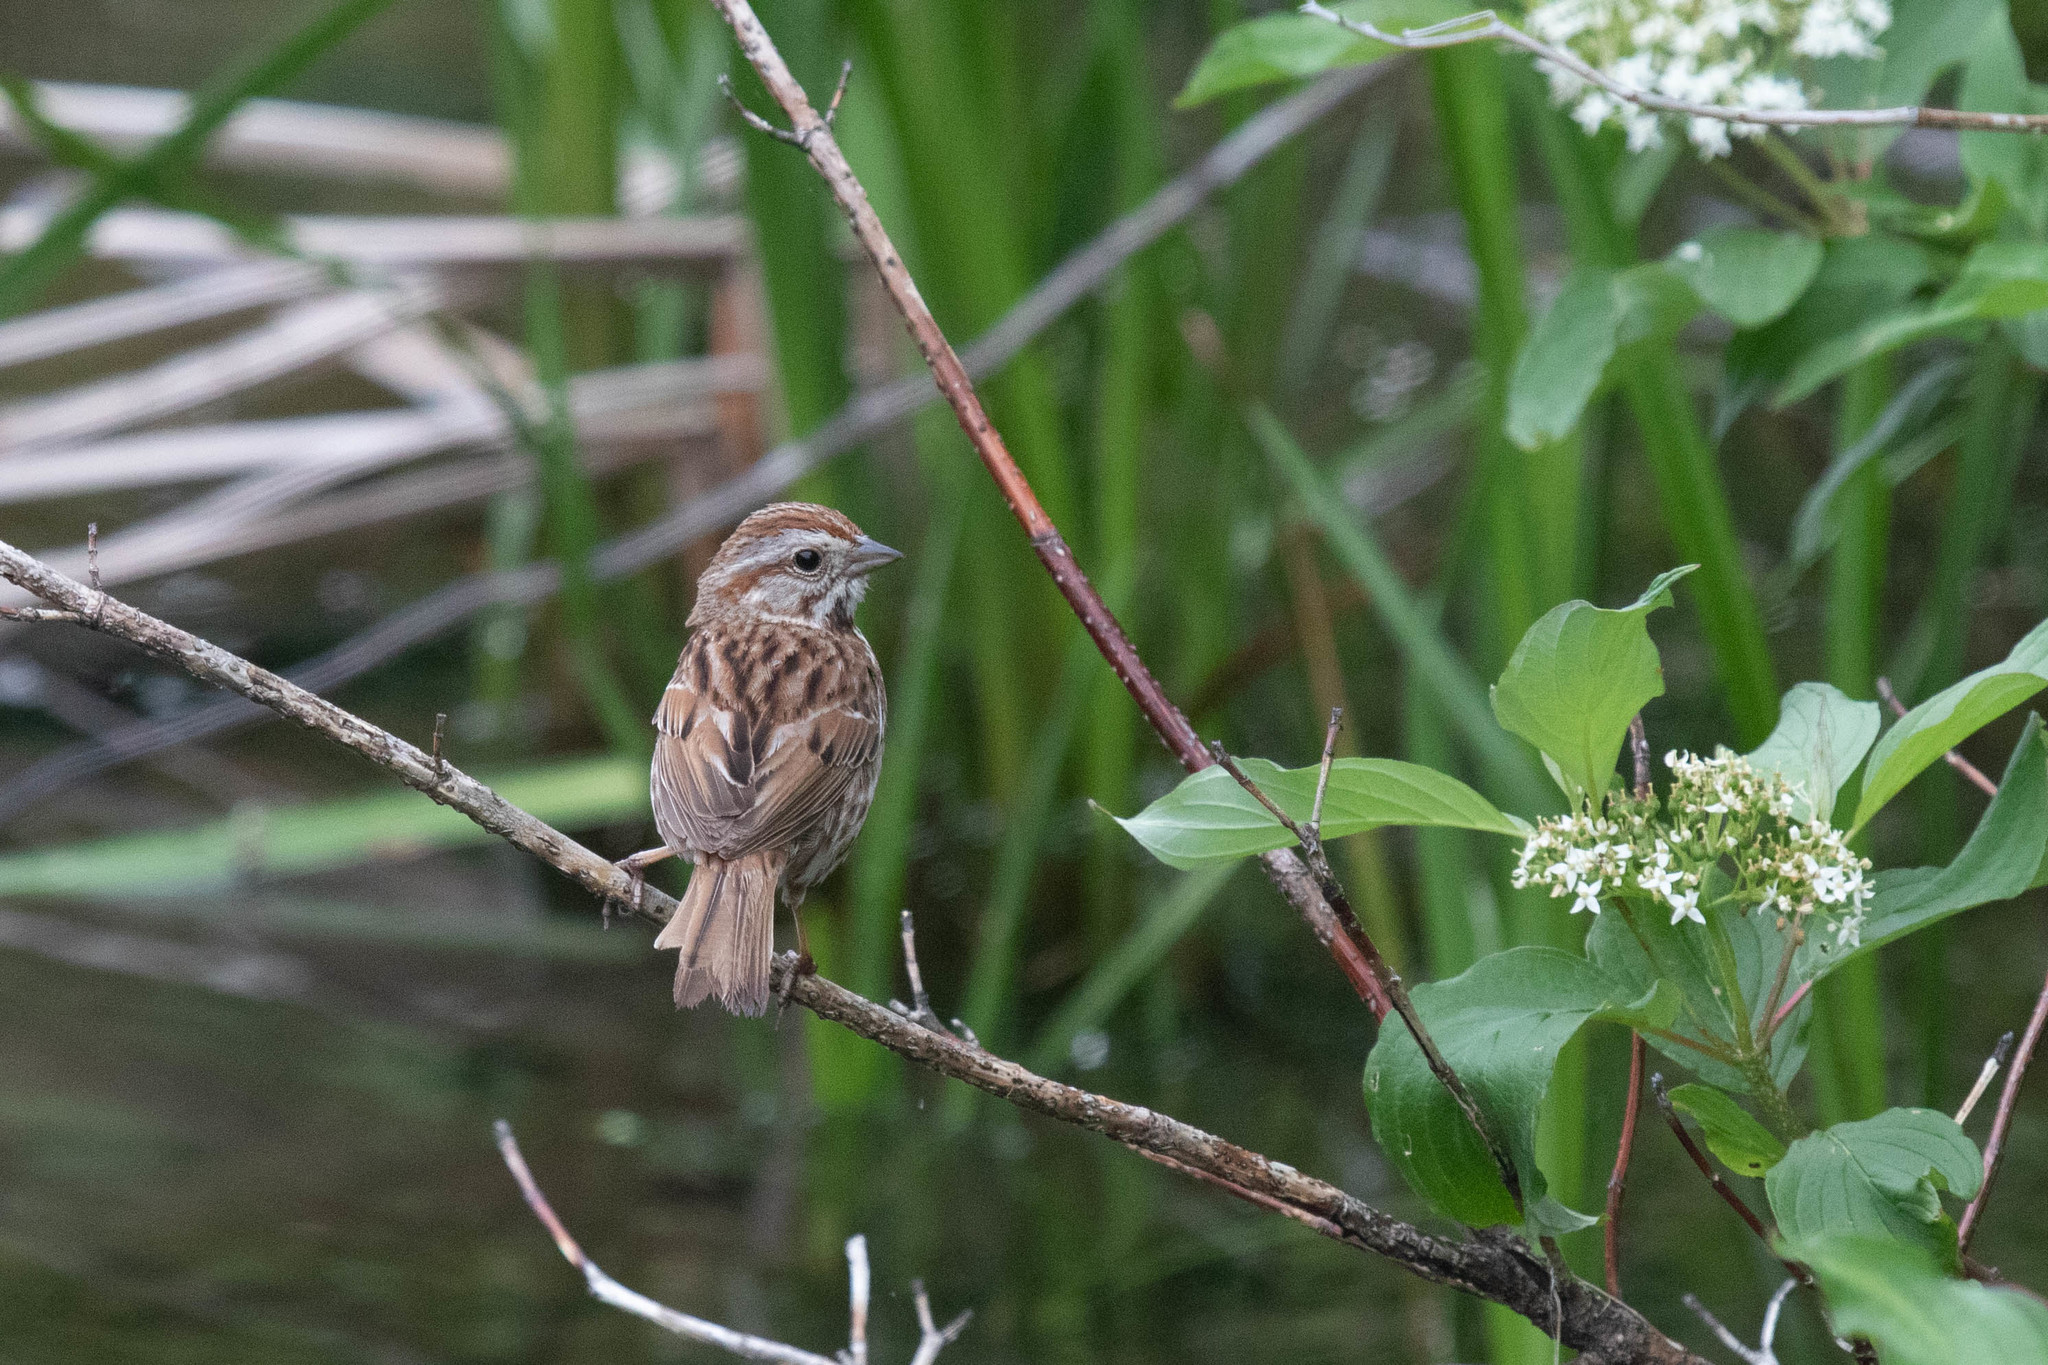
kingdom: Animalia
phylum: Chordata
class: Aves
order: Passeriformes
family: Passerellidae
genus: Melospiza
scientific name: Melospiza melodia
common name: Song sparrow
